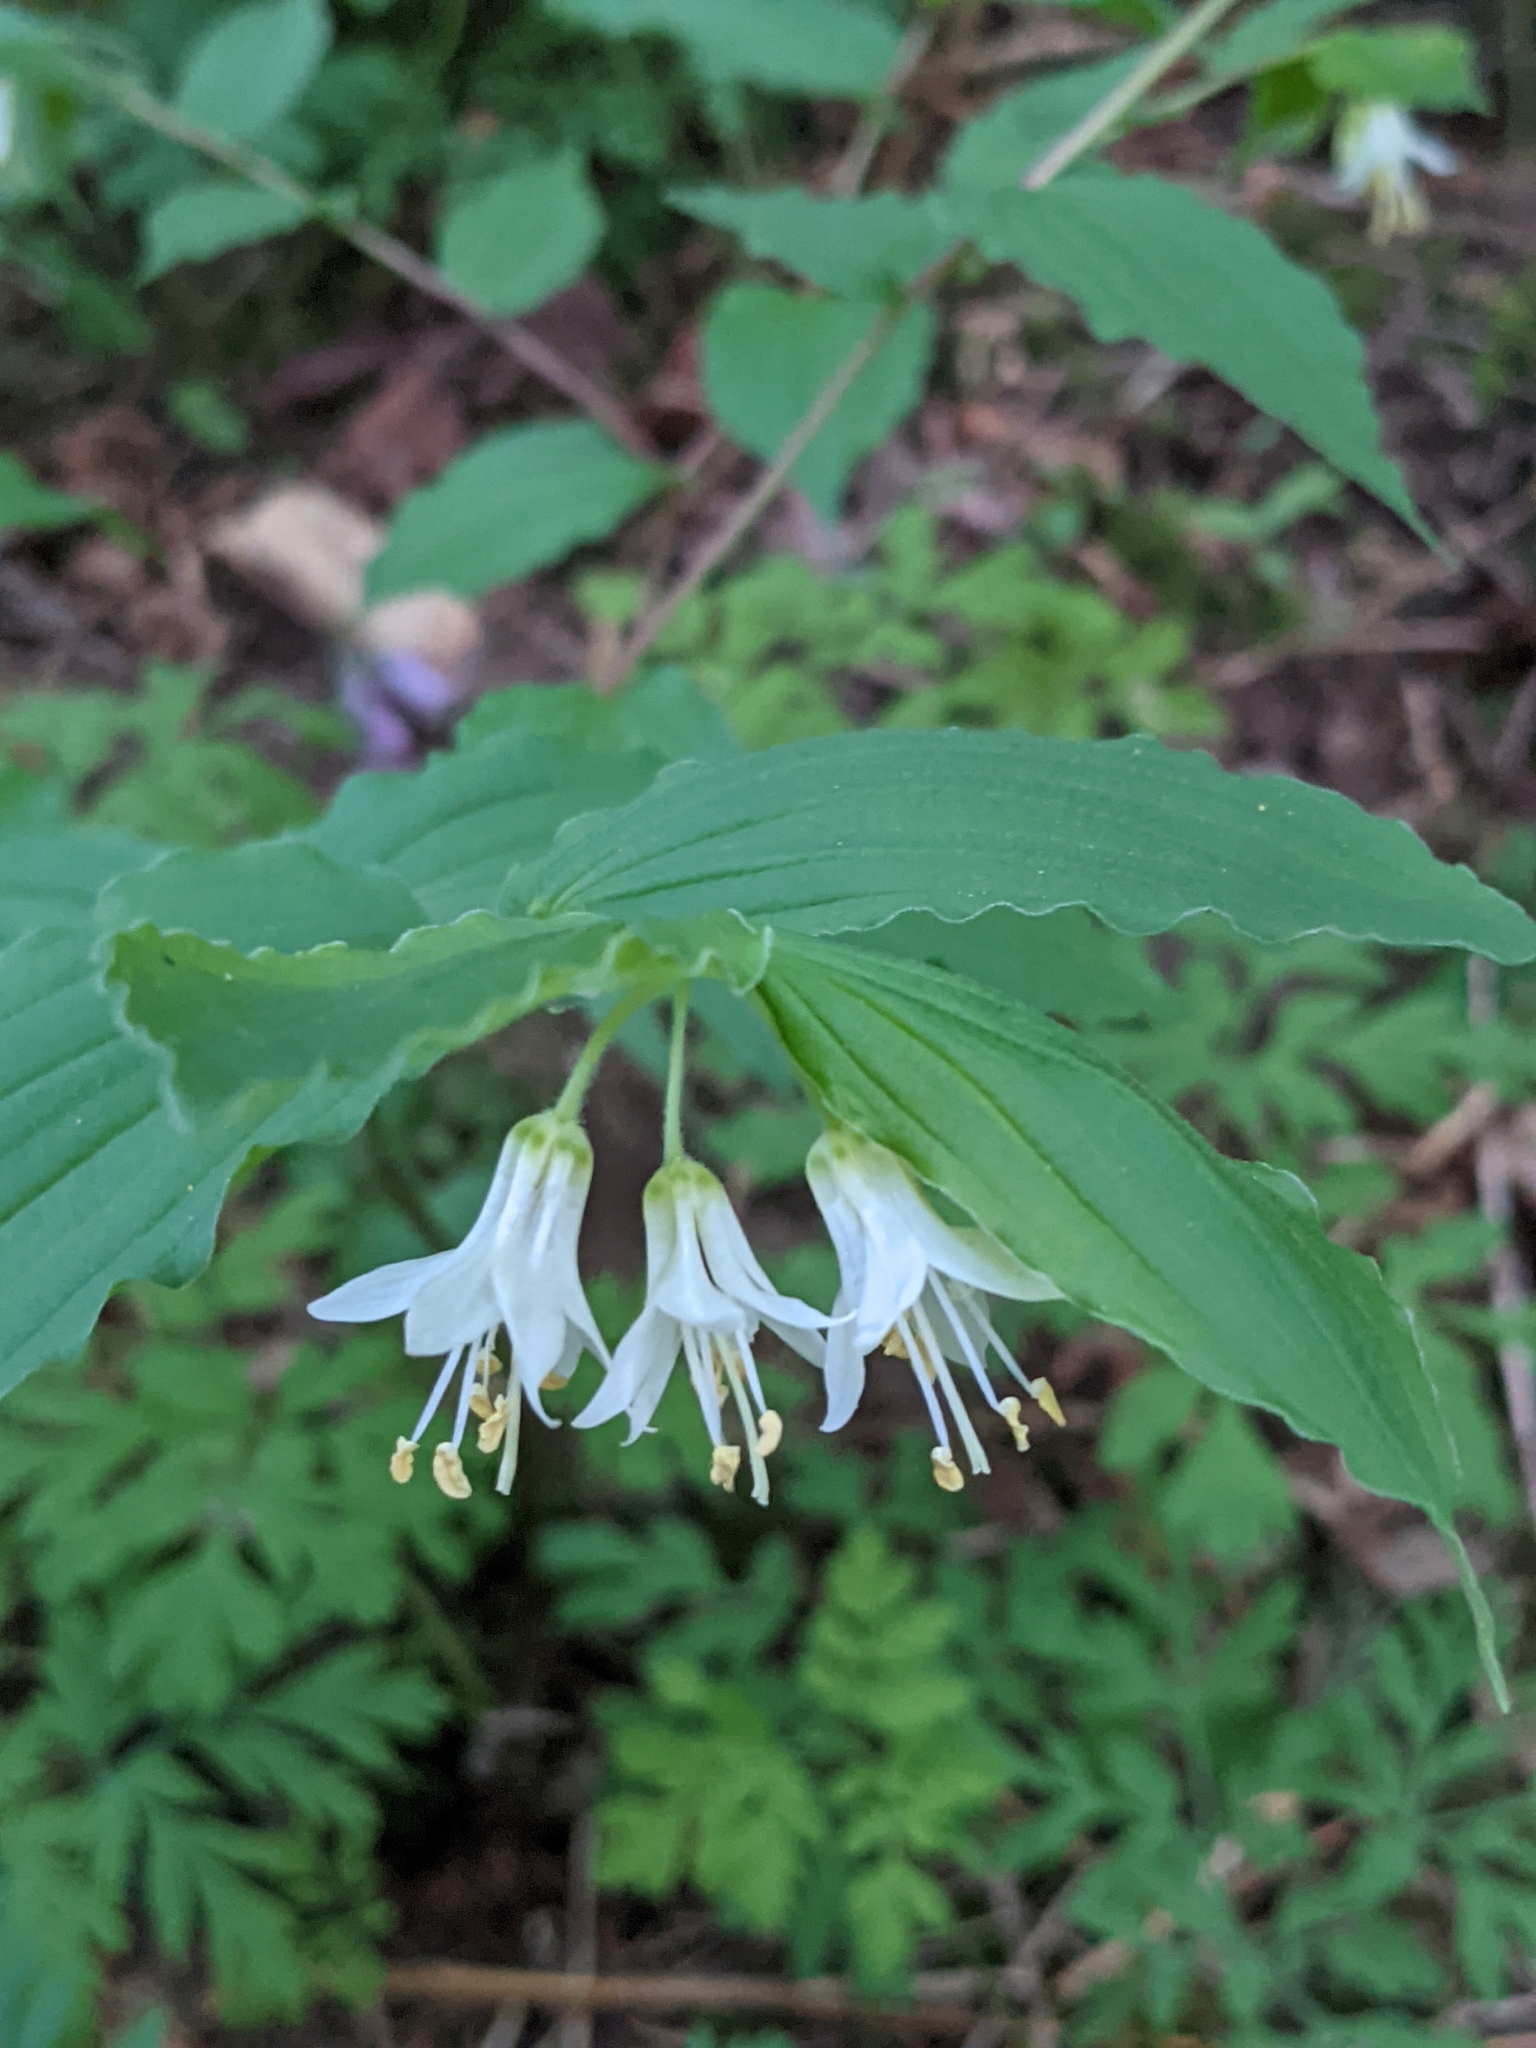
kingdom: Plantae
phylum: Tracheophyta
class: Liliopsida
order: Liliales
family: Liliaceae
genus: Prosartes
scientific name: Prosartes hookeri
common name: Fairy-bells
